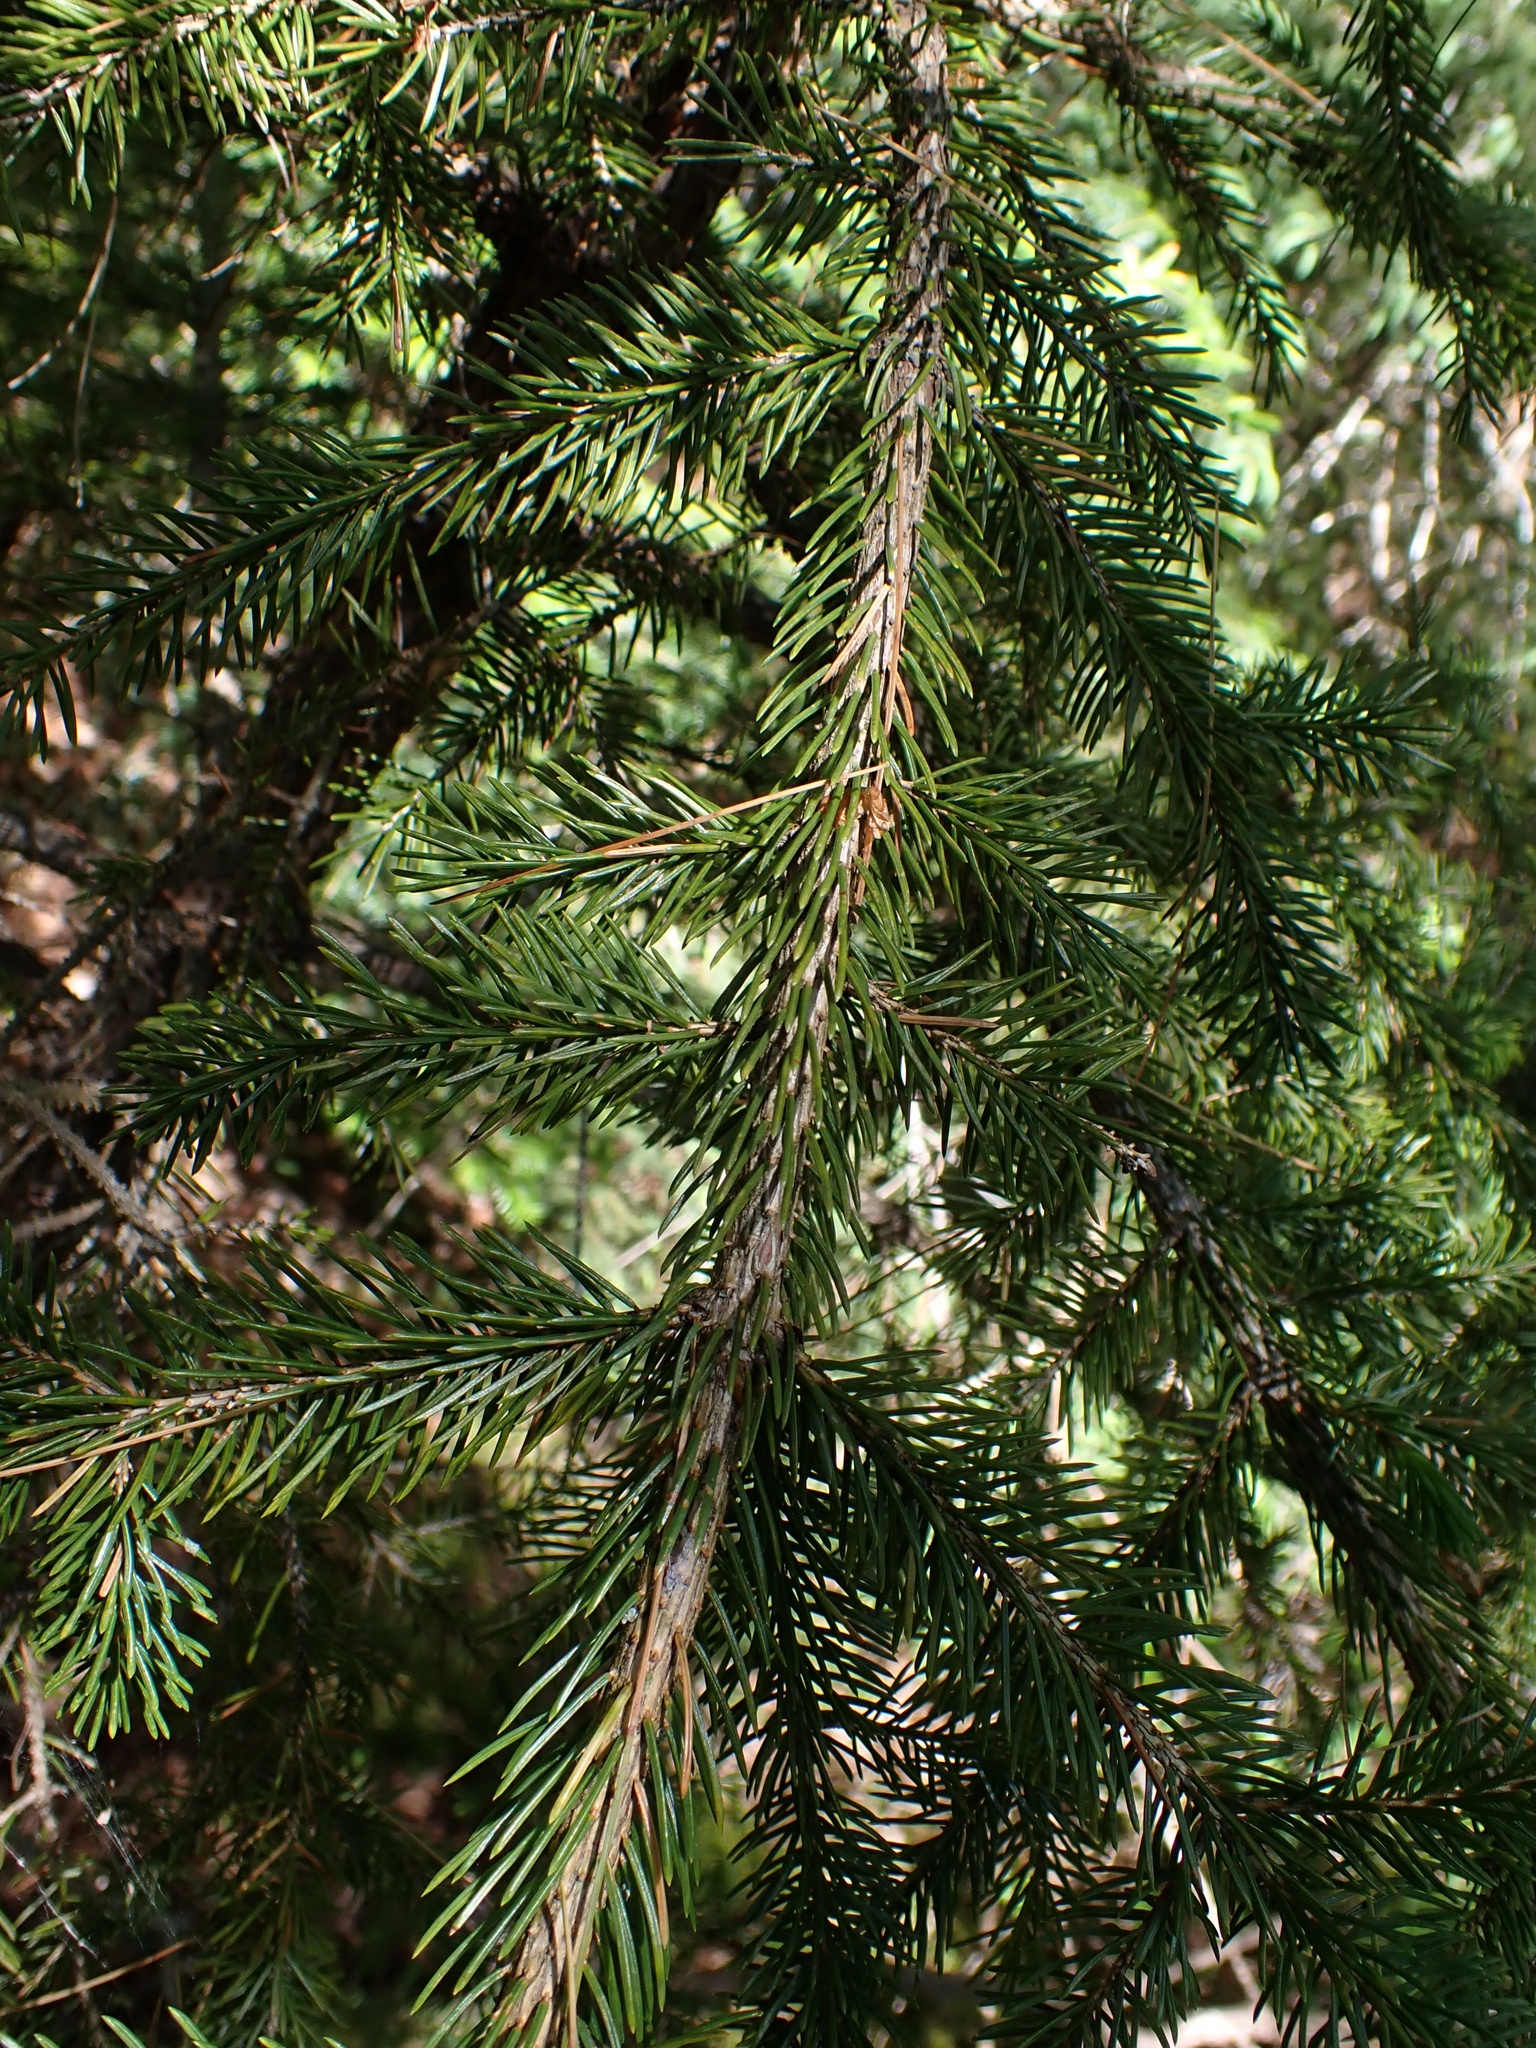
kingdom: Plantae
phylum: Tracheophyta
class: Pinopsida
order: Pinales
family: Pinaceae
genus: Picea
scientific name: Picea rubens
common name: Red spruce
